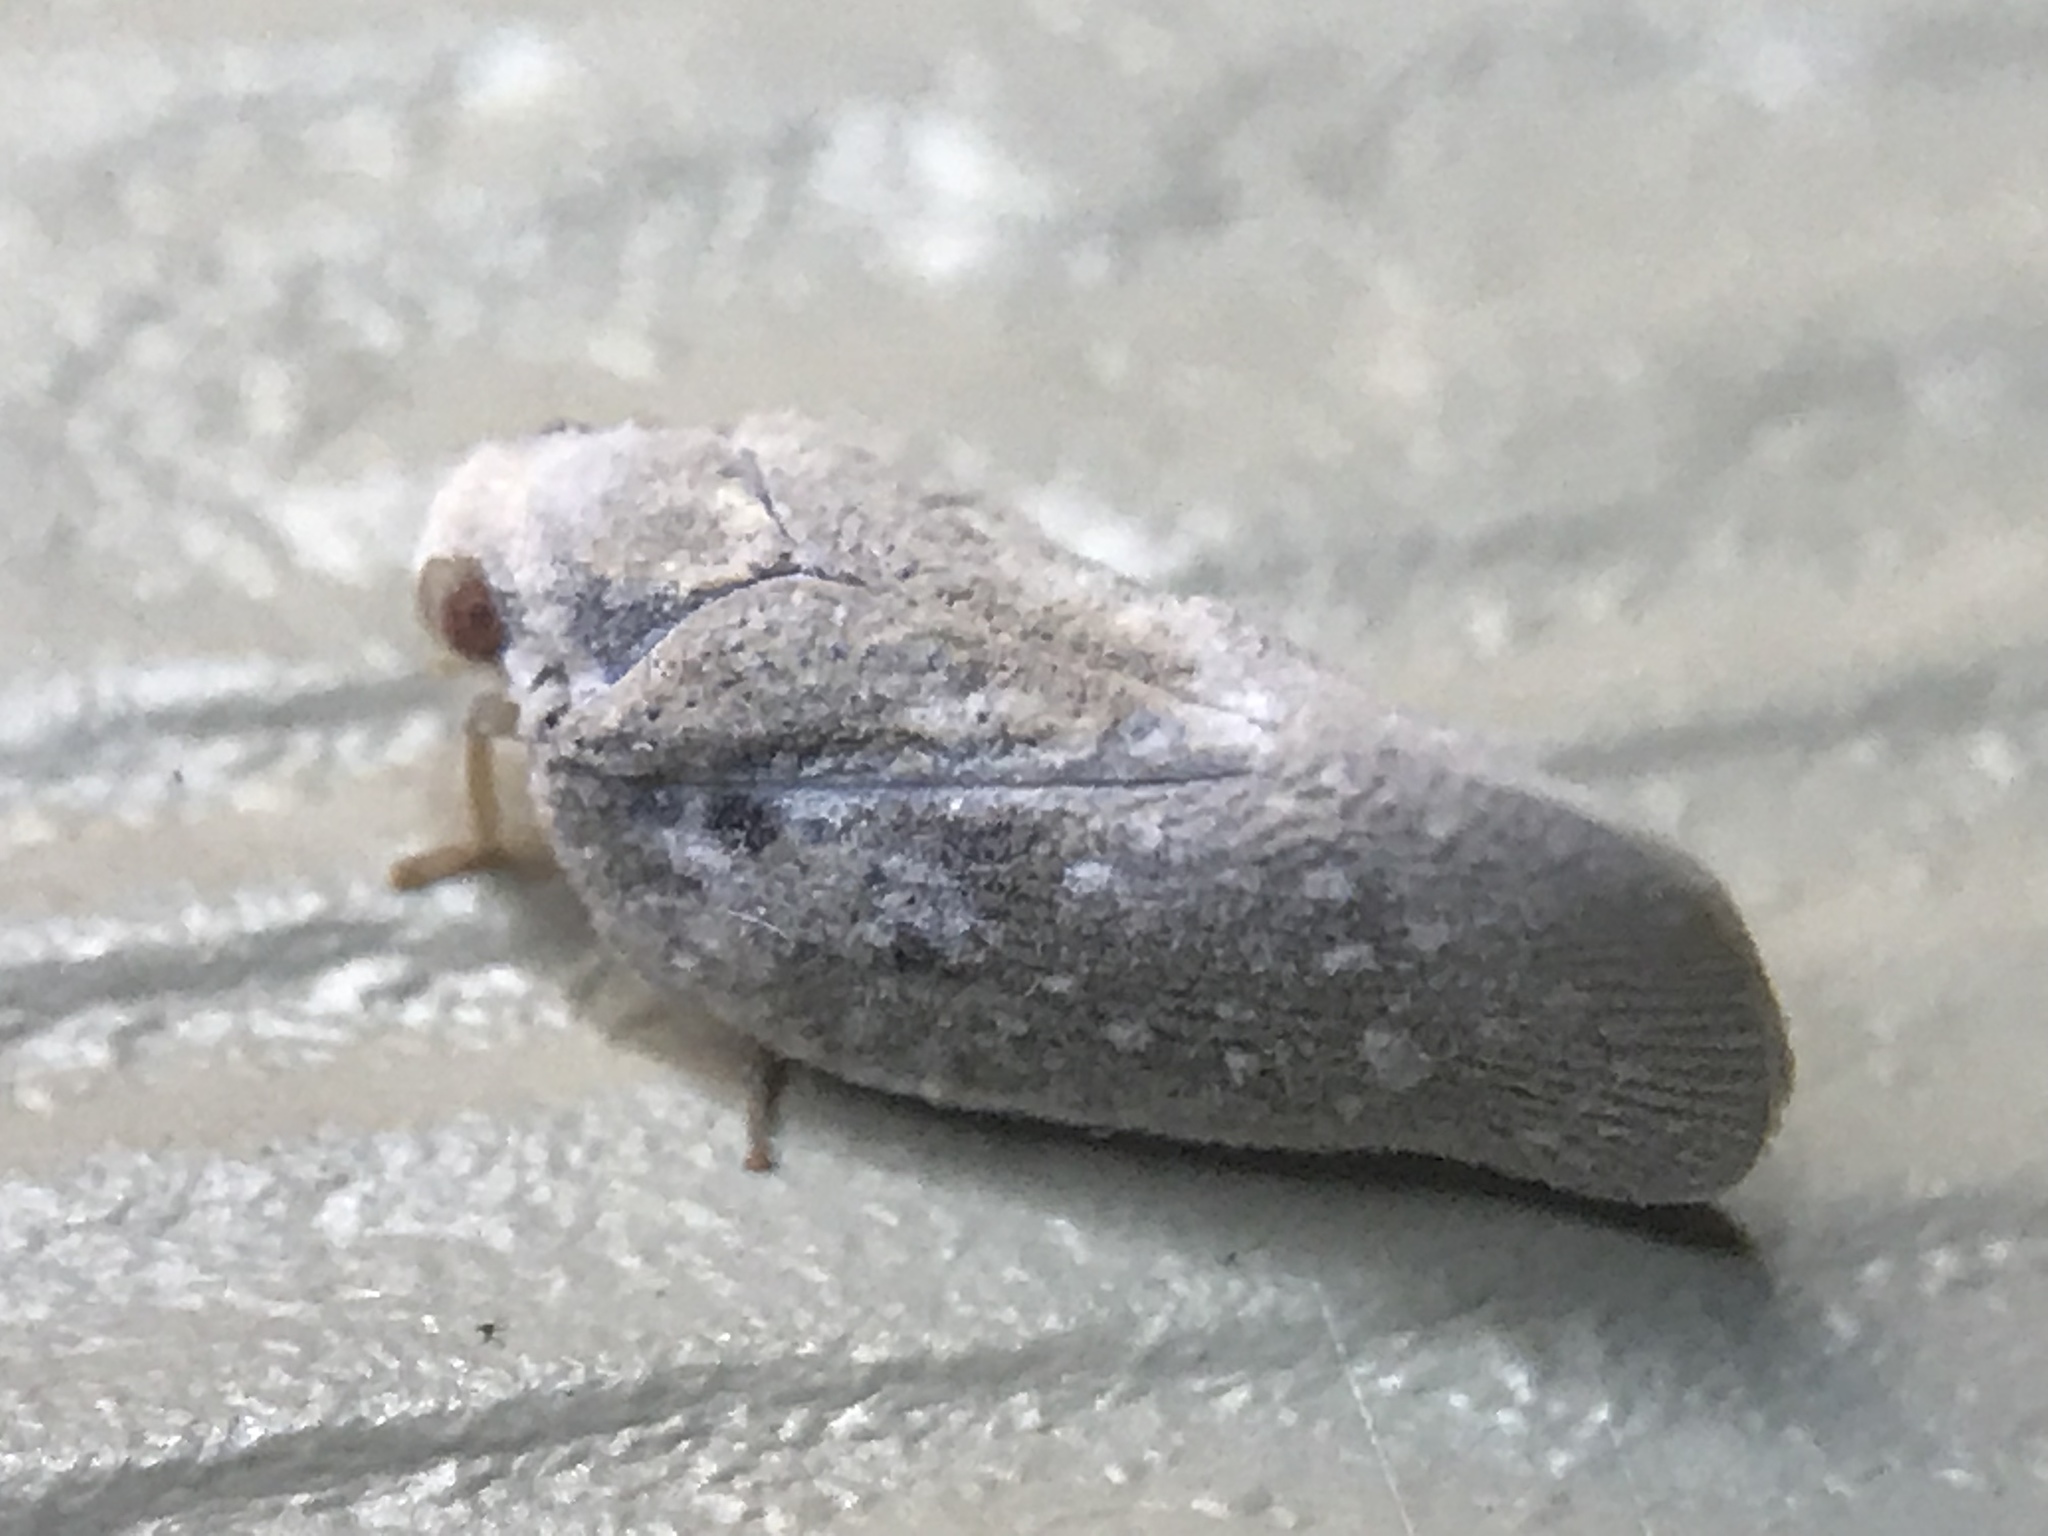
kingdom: Animalia
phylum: Arthropoda
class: Insecta
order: Hemiptera
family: Flatidae
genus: Metcalfa
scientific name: Metcalfa pruinosa
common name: Citrus flatid planthopper
